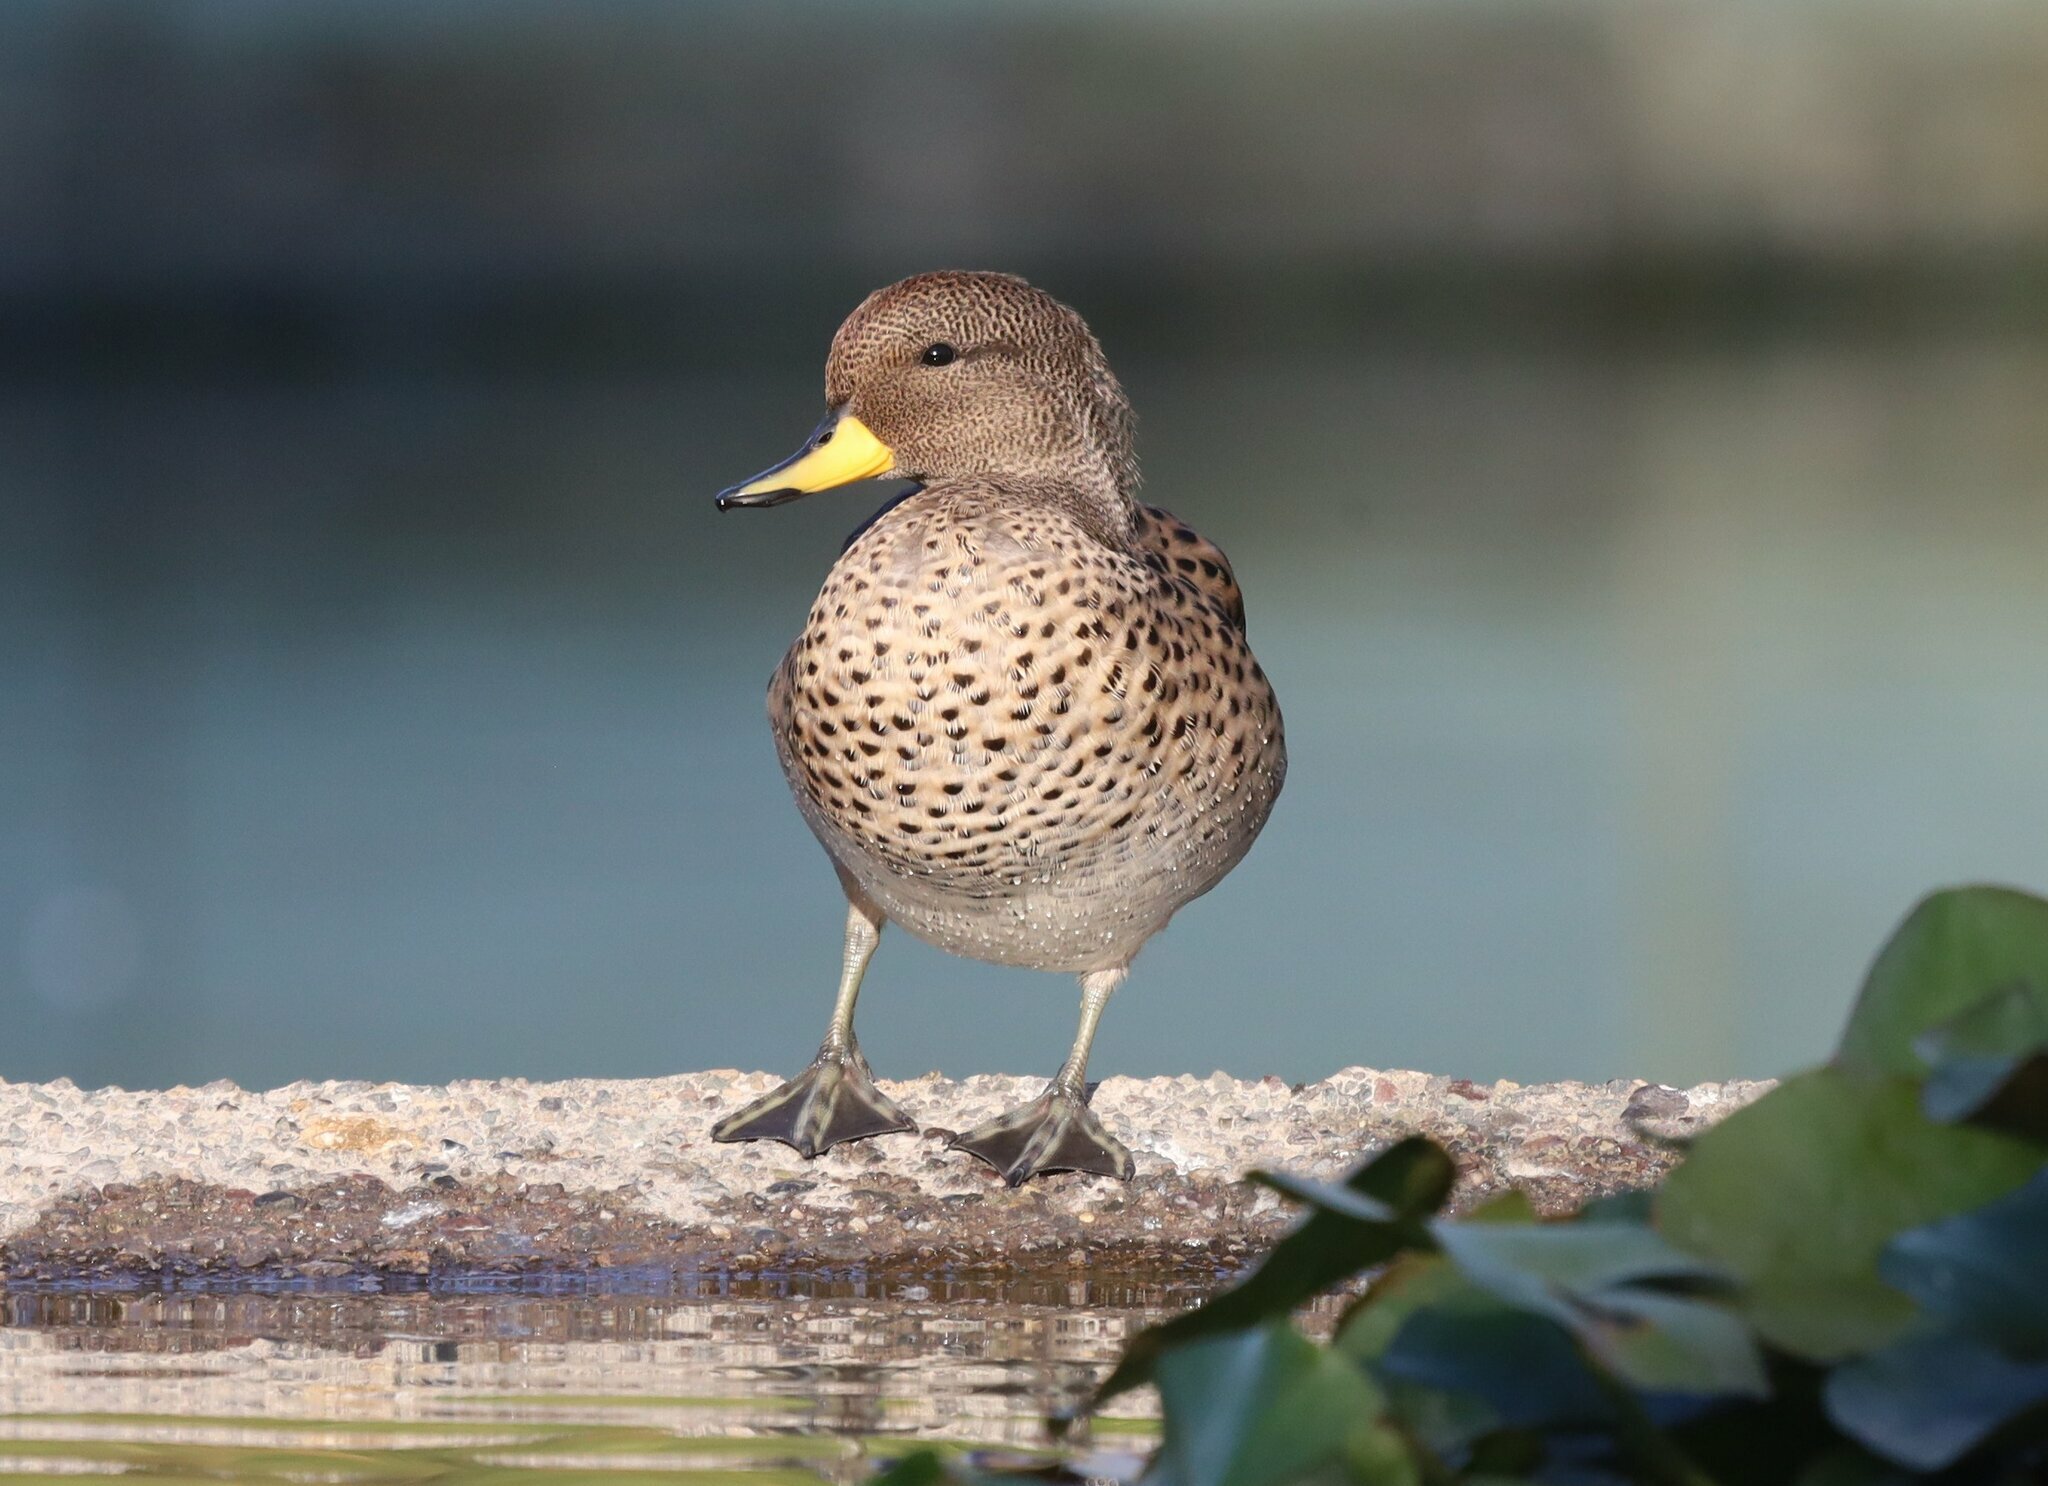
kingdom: Animalia
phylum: Chordata
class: Aves
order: Anseriformes
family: Anatidae
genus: Anas
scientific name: Anas flavirostris
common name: Yellow-billed teal
